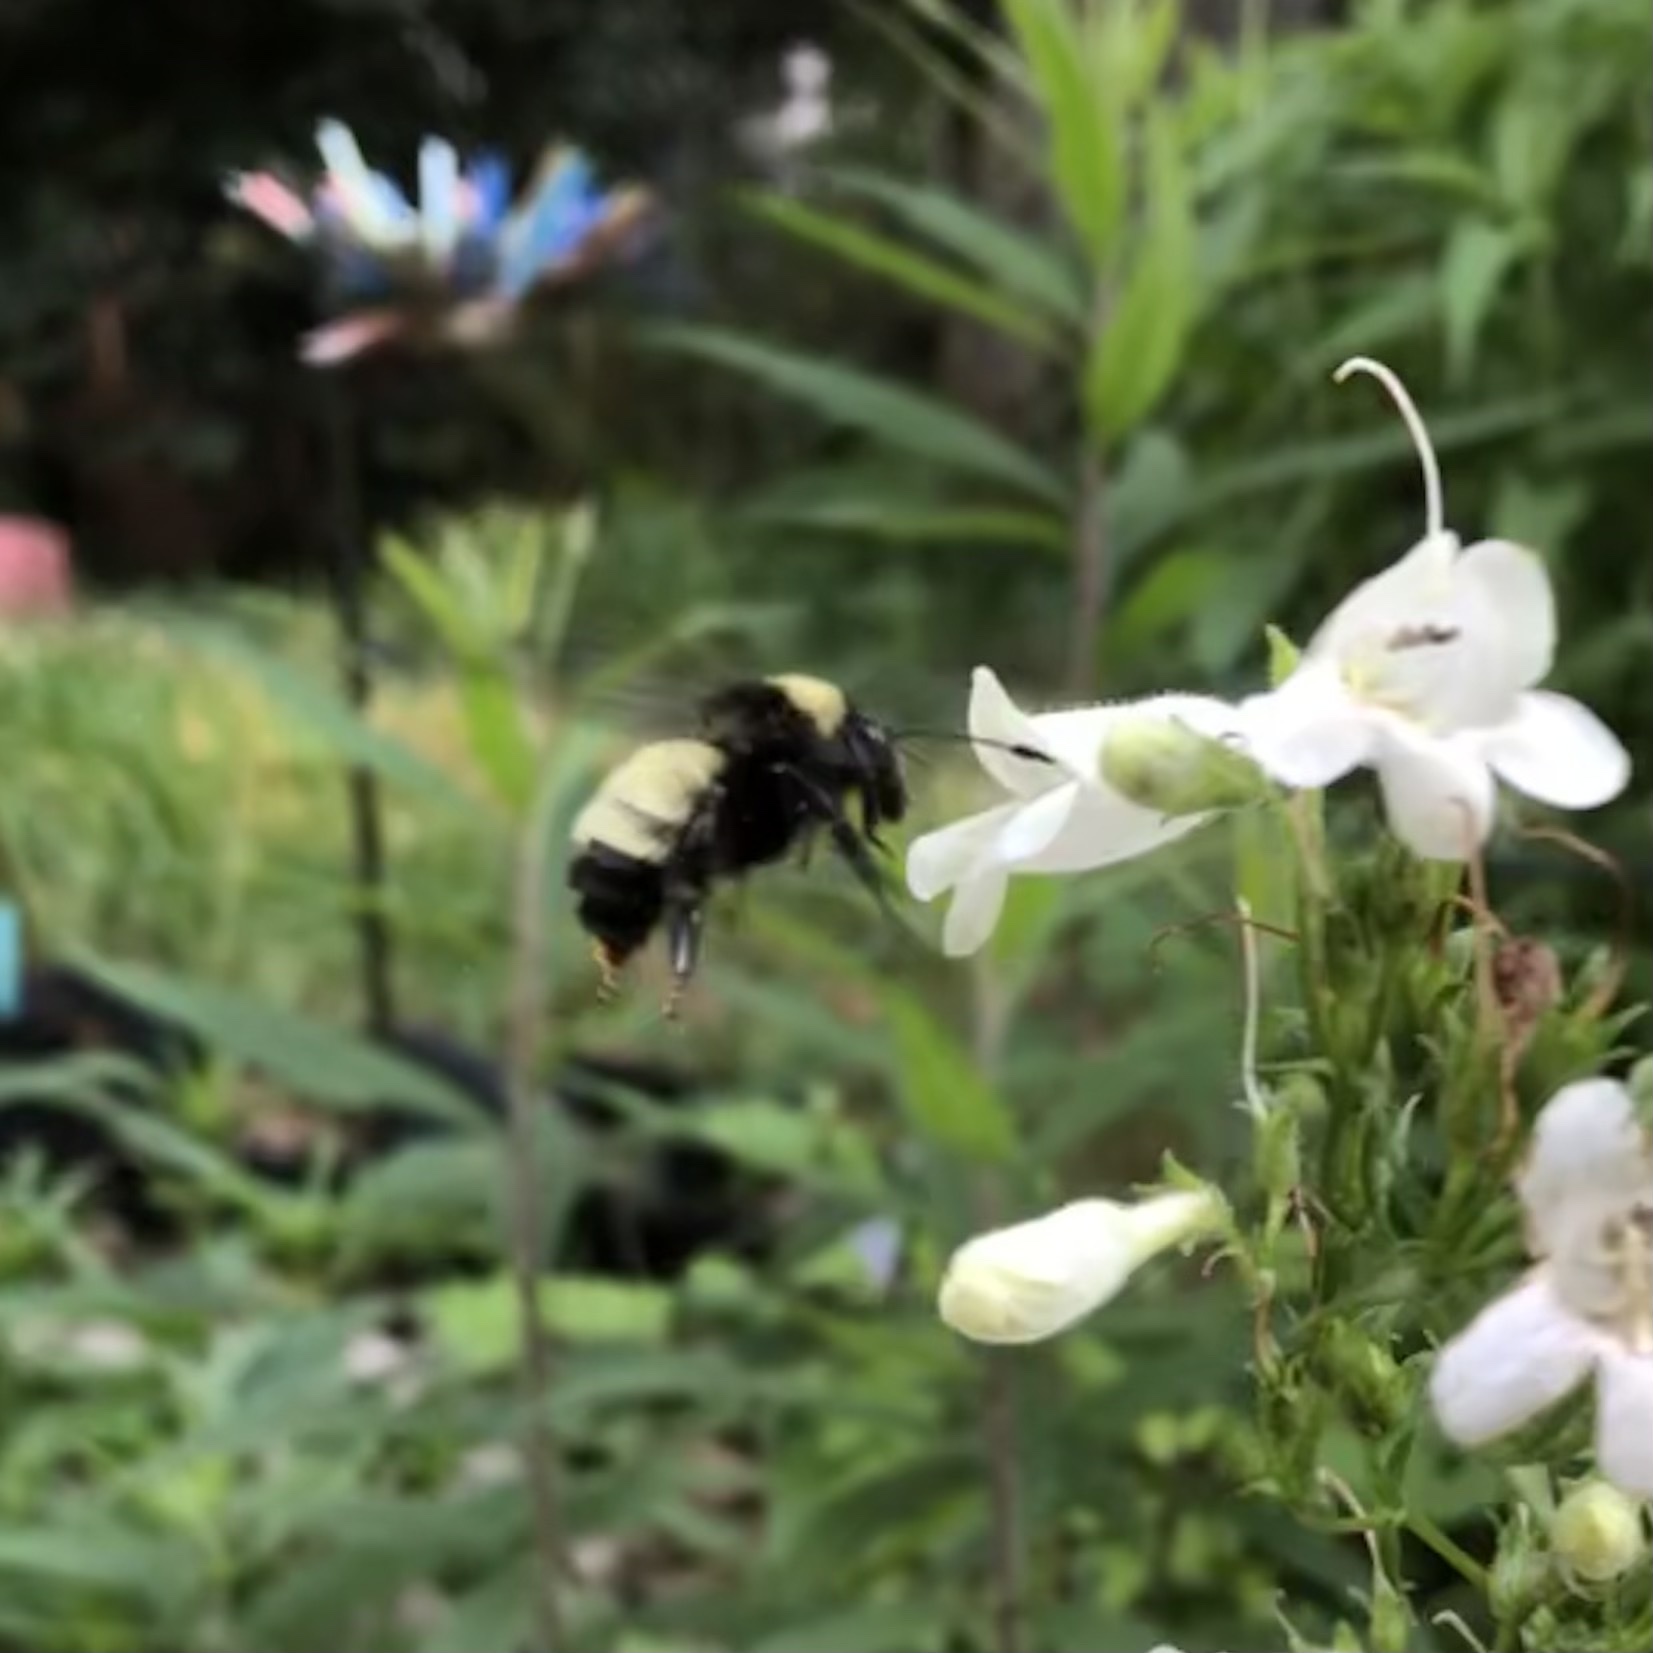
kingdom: Animalia
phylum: Arthropoda
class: Insecta
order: Hymenoptera
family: Apidae
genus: Bombus
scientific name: Bombus pensylvanicus
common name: Bumble bee
